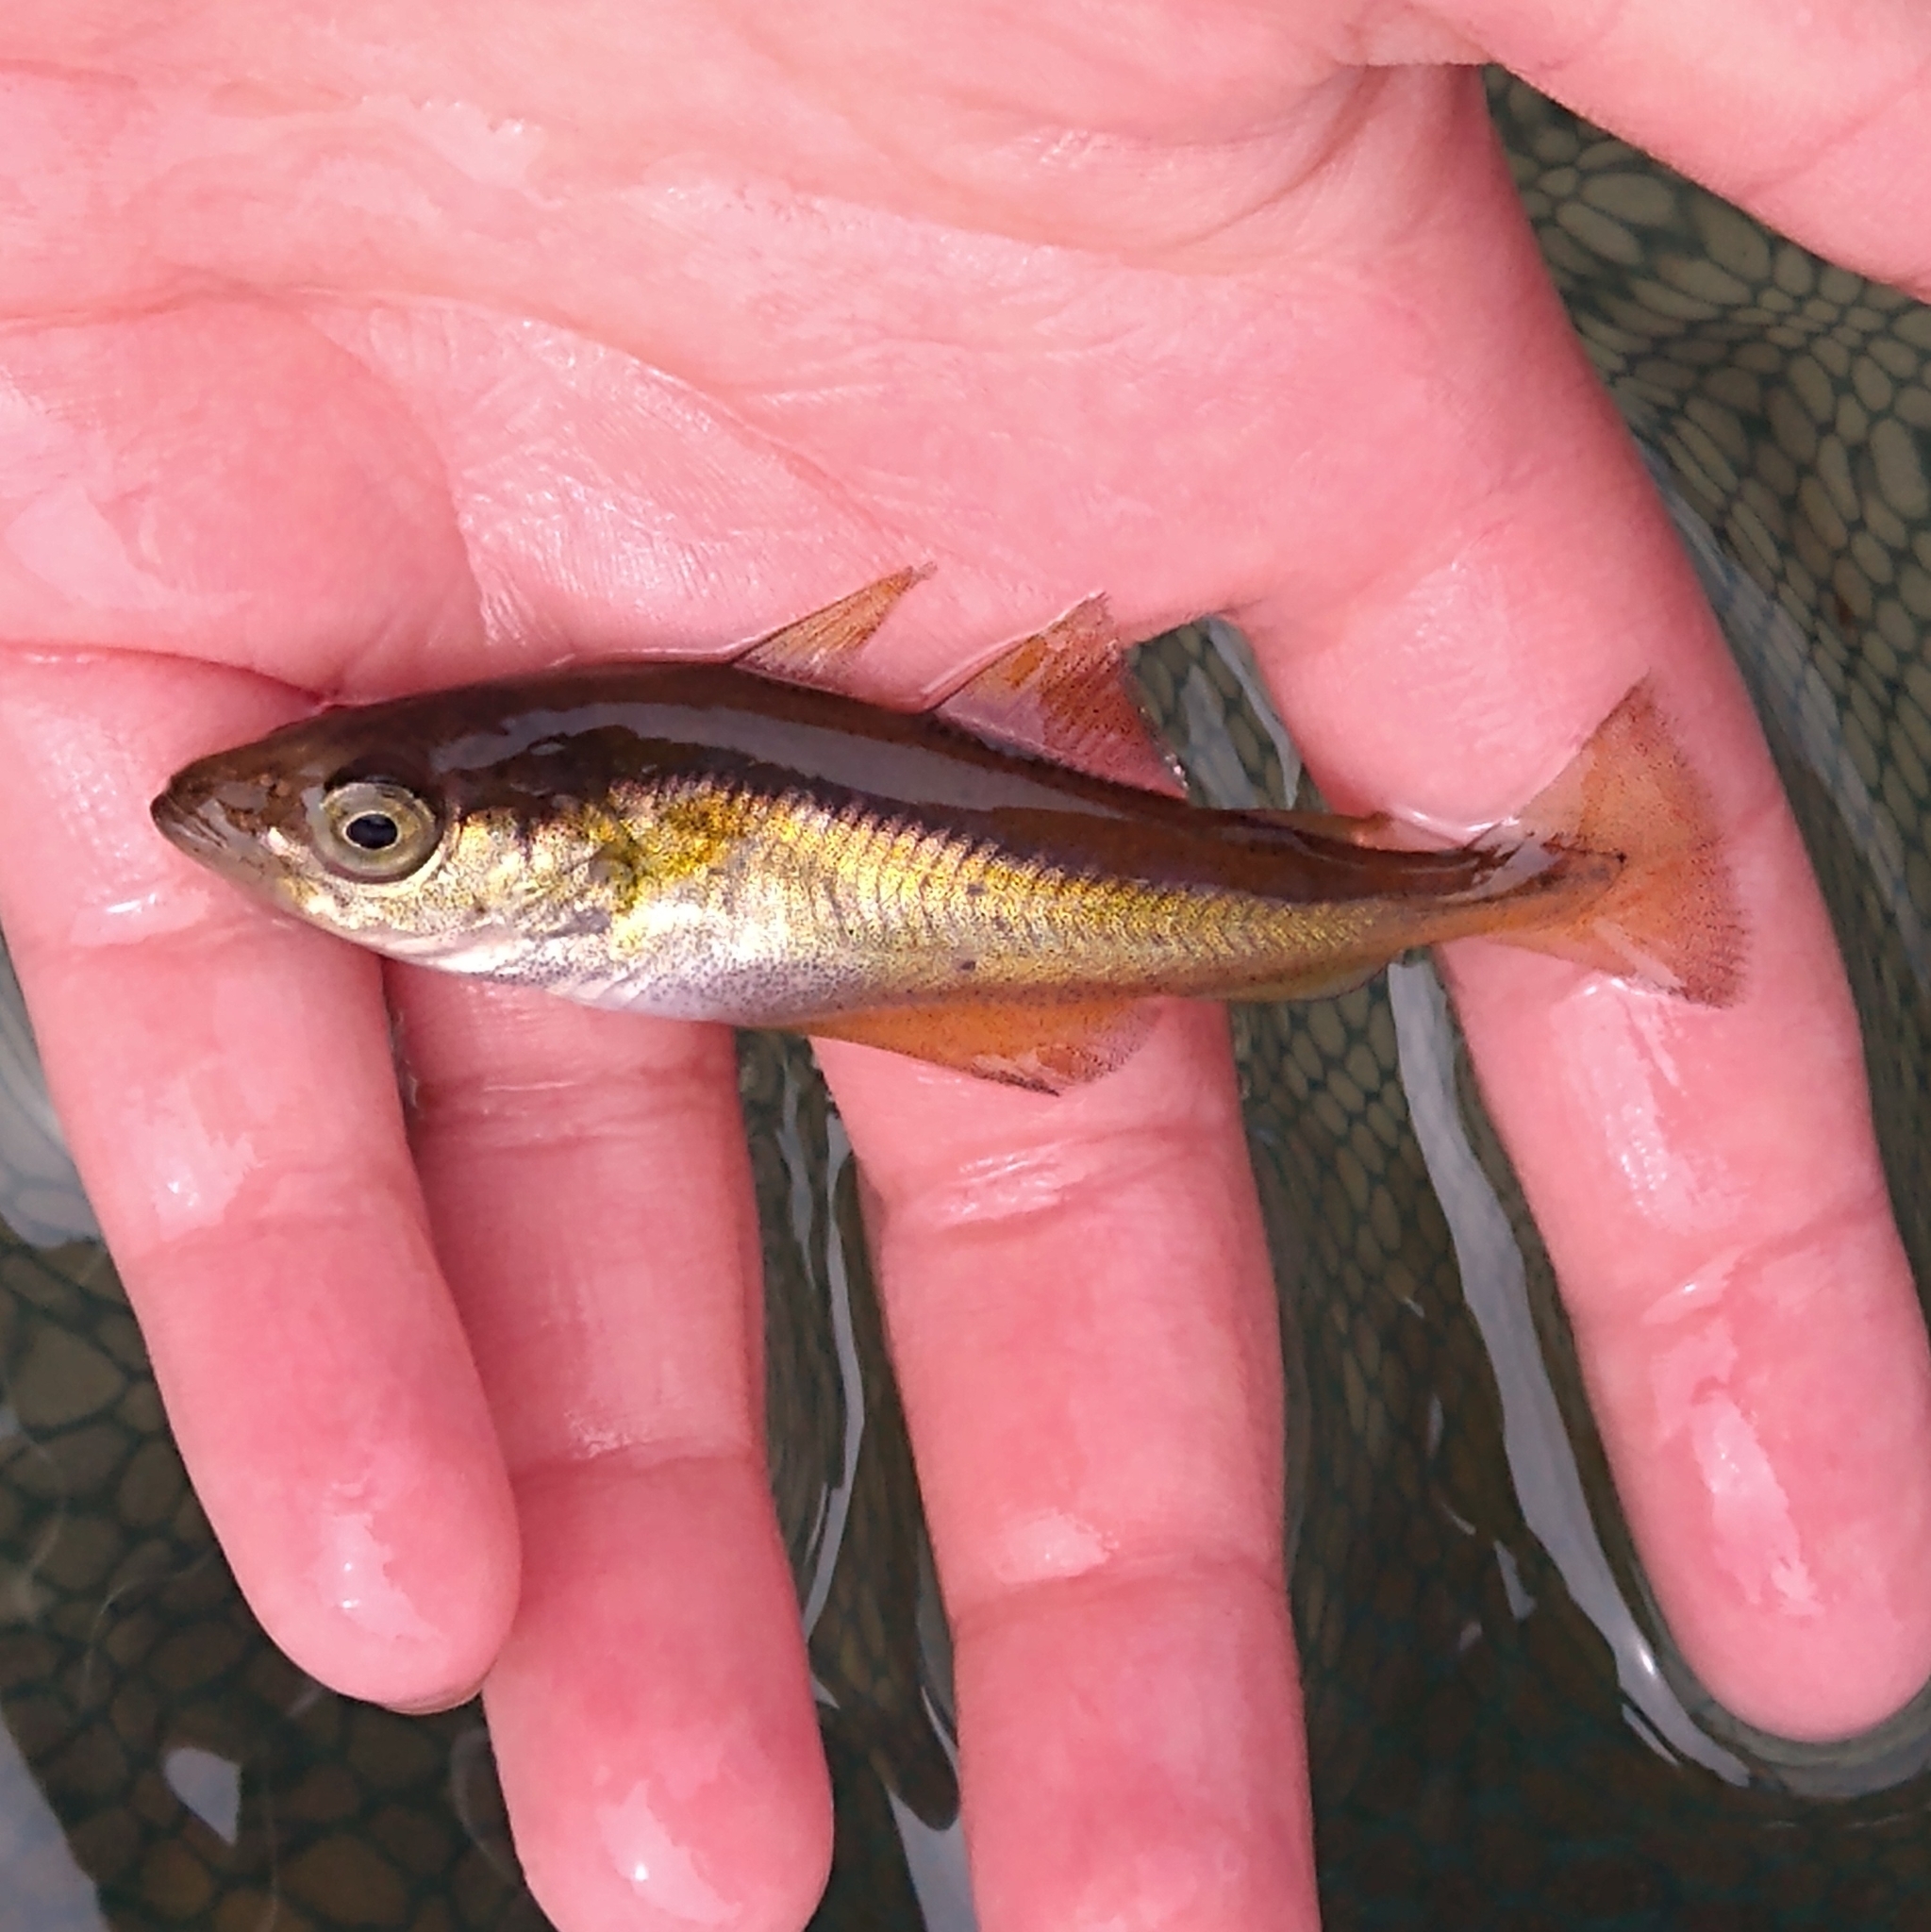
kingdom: Animalia
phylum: Chordata
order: Gadiformes
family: Gadidae
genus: Pollachius
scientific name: Pollachius pollachius
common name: Pollack
